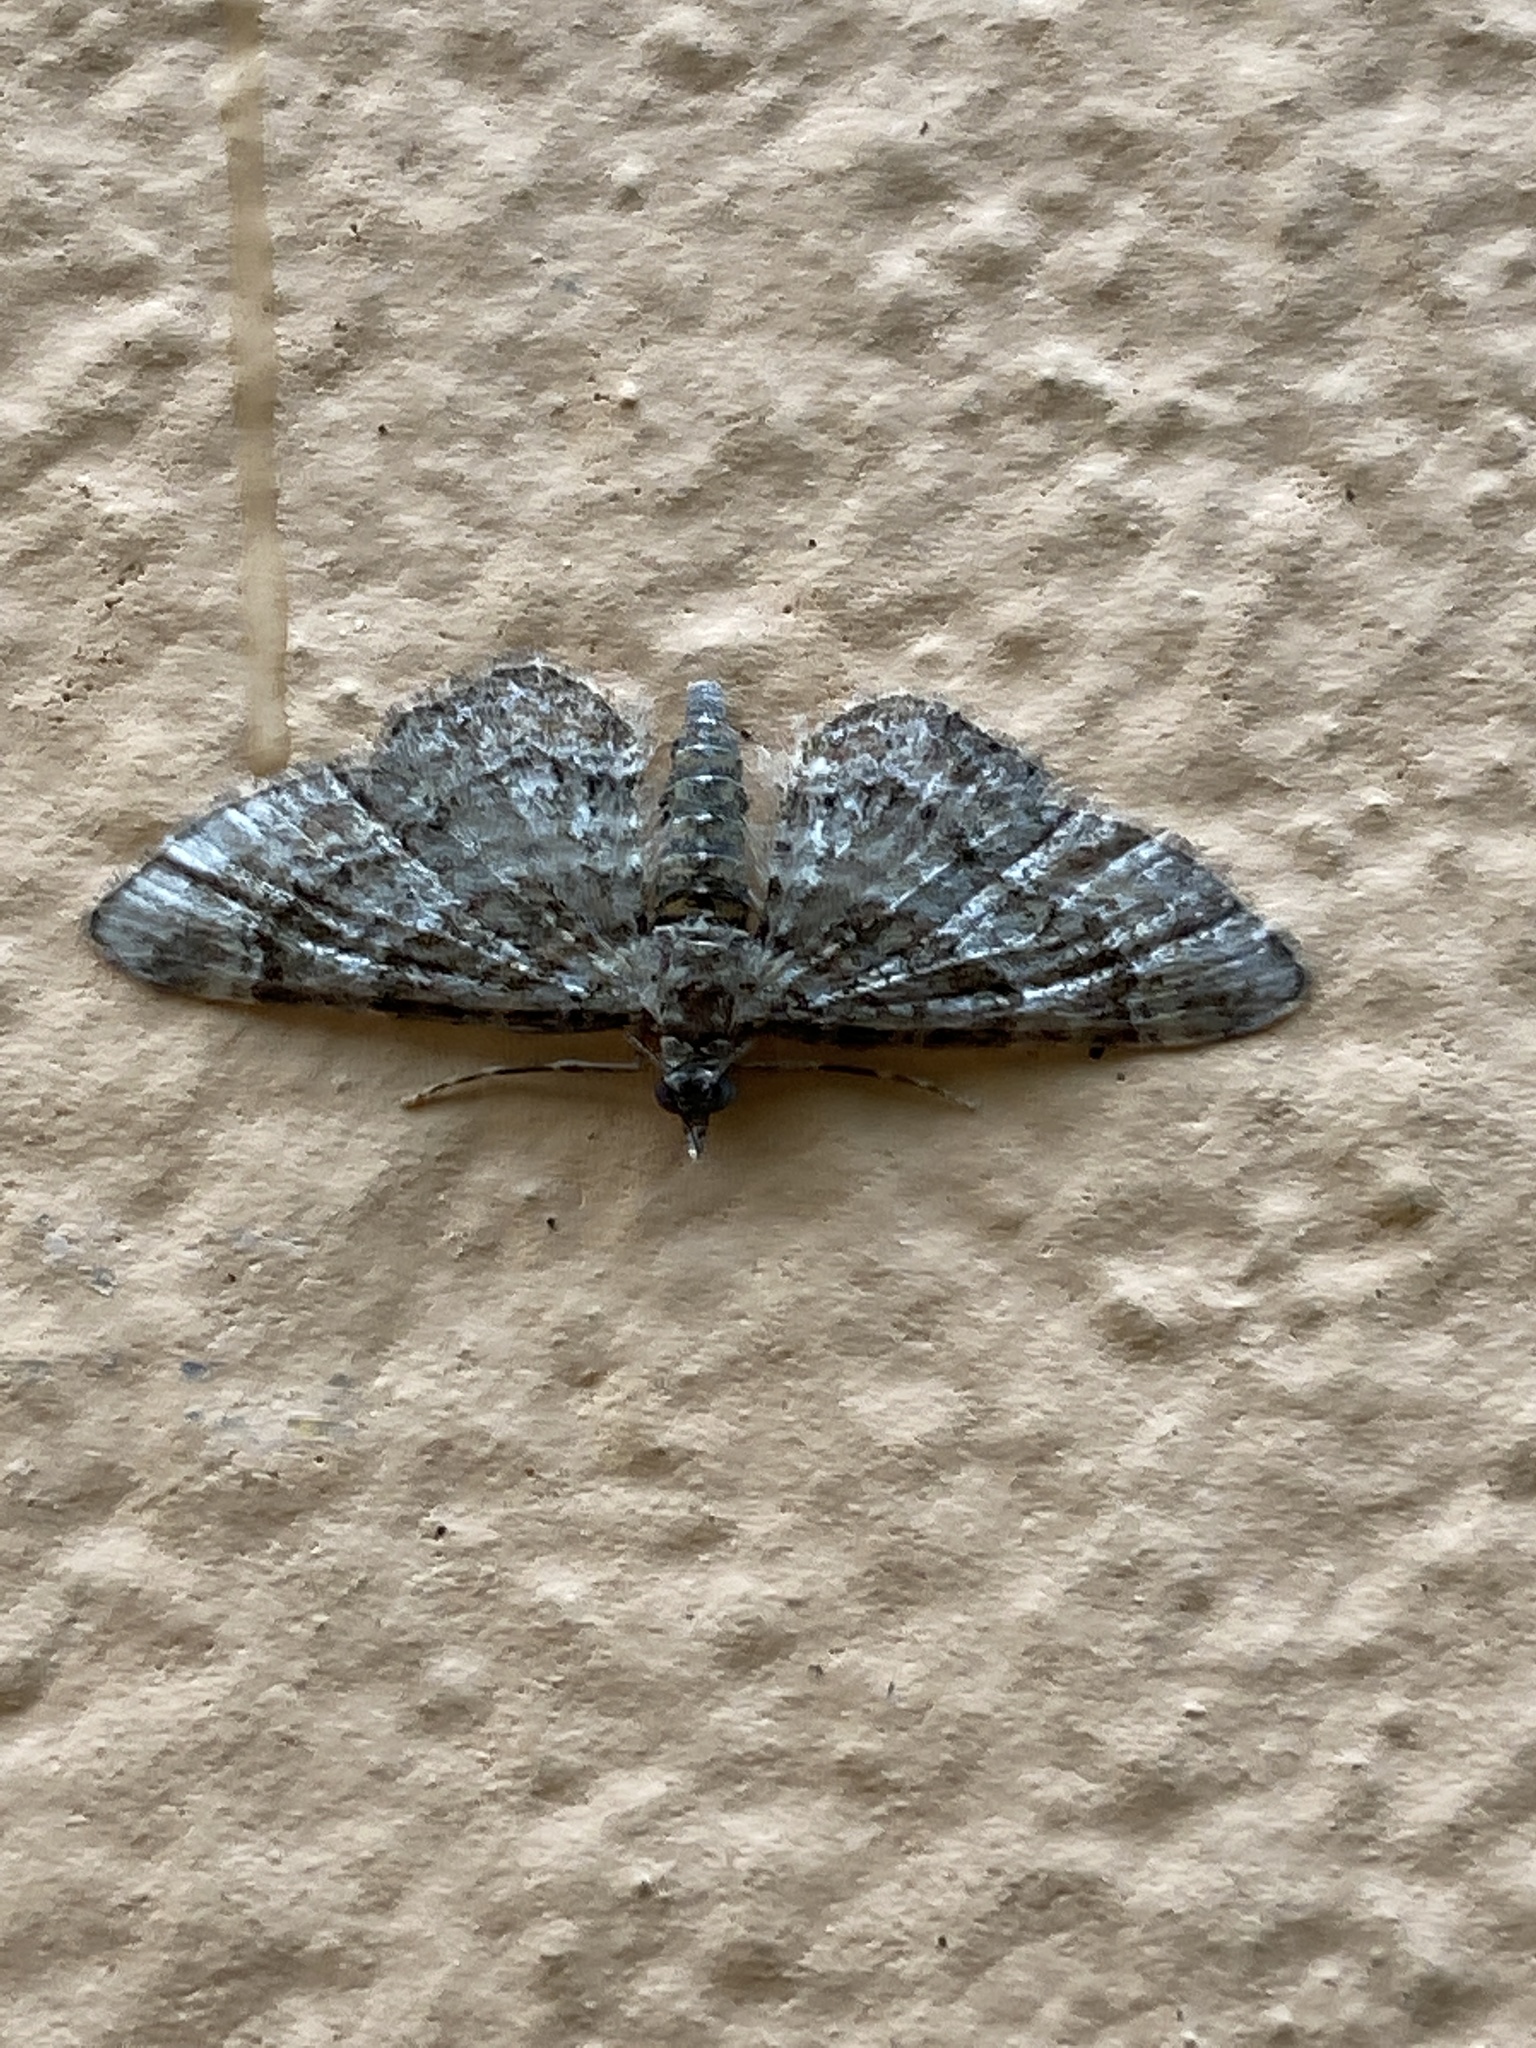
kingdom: Animalia
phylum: Arthropoda
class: Insecta
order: Lepidoptera
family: Geometridae
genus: Gymnoscelis
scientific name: Gymnoscelis rufifasciata
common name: Double-striped pug
